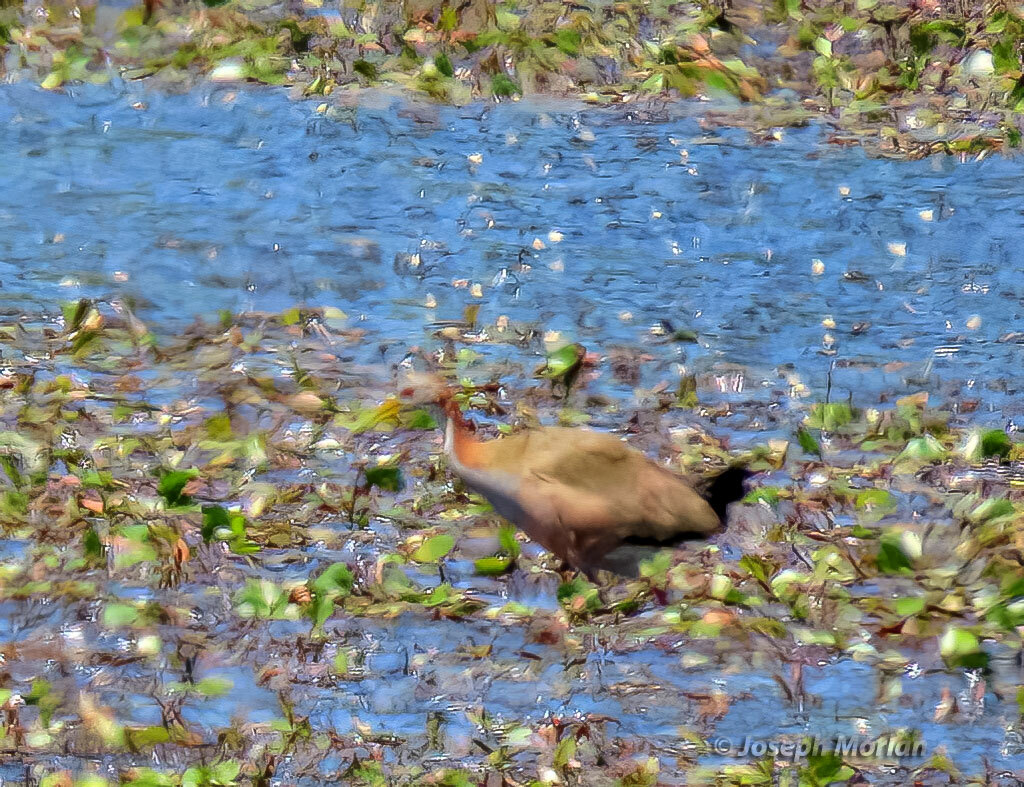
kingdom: Animalia
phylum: Chordata
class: Aves
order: Gruiformes
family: Rallidae
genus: Aramides
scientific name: Aramides ypecaha
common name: Giant wood rail
